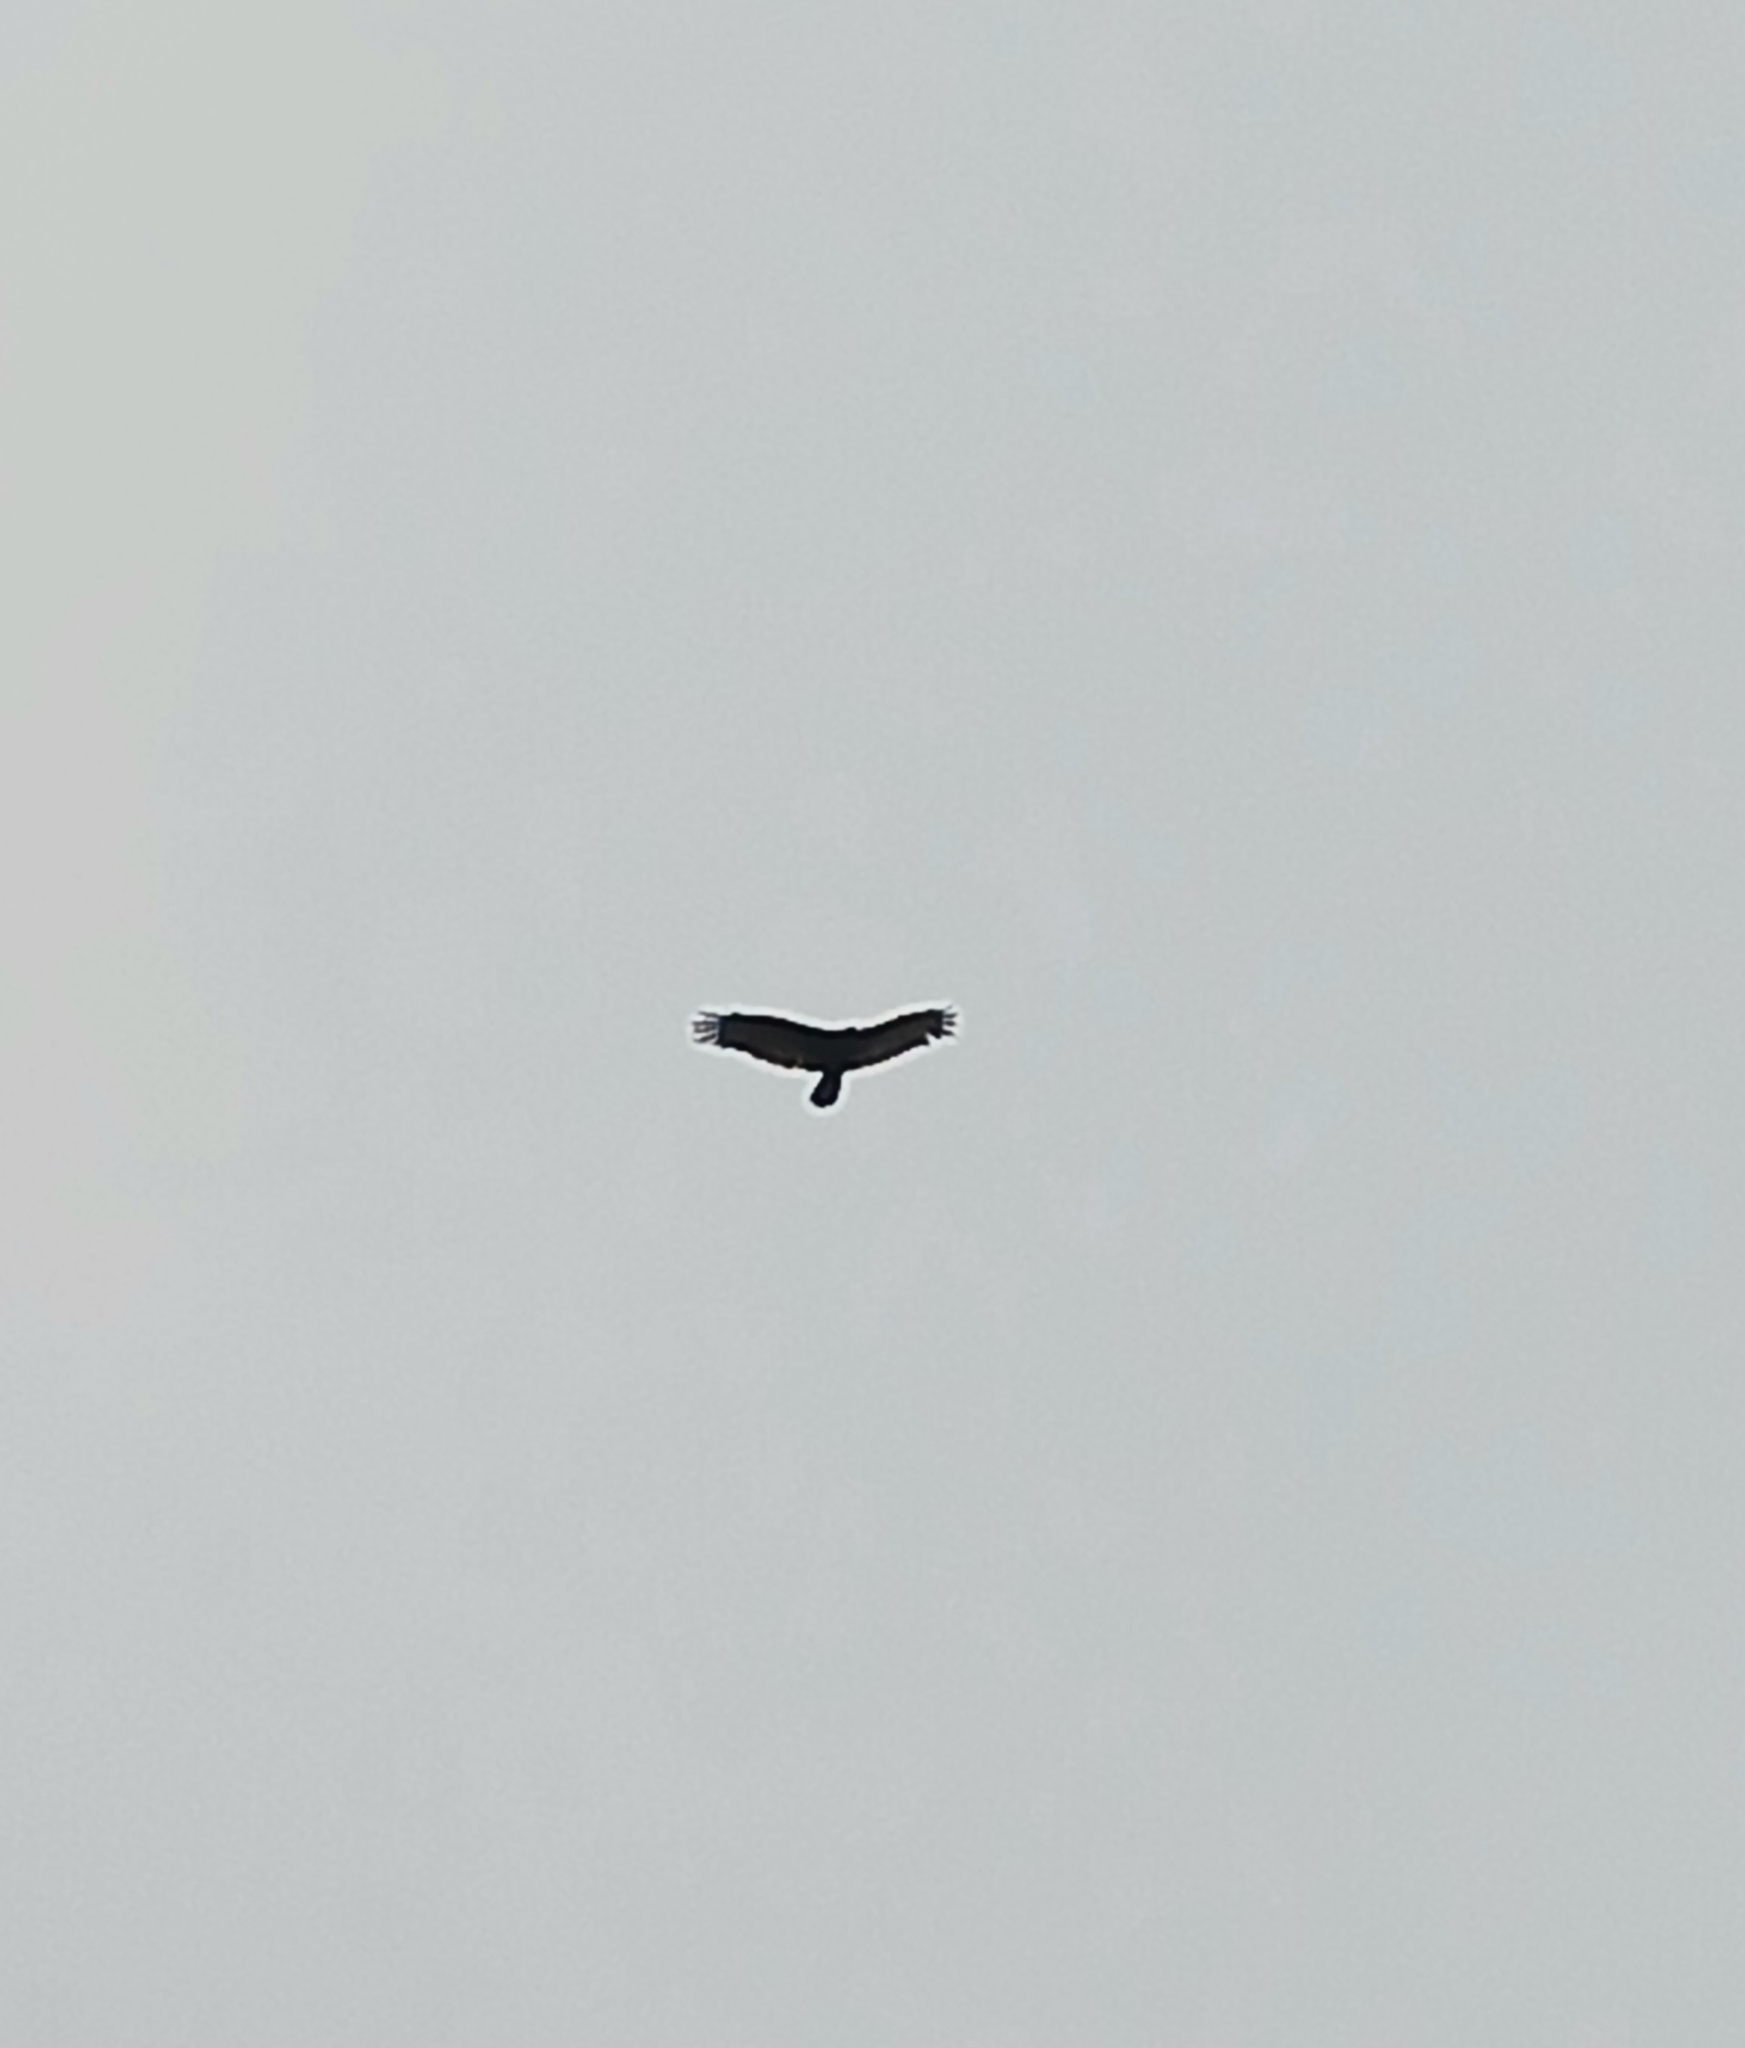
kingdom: Animalia
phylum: Chordata
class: Aves
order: Accipitriformes
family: Cathartidae
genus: Cathartes
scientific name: Cathartes aura
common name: Turkey vulture
